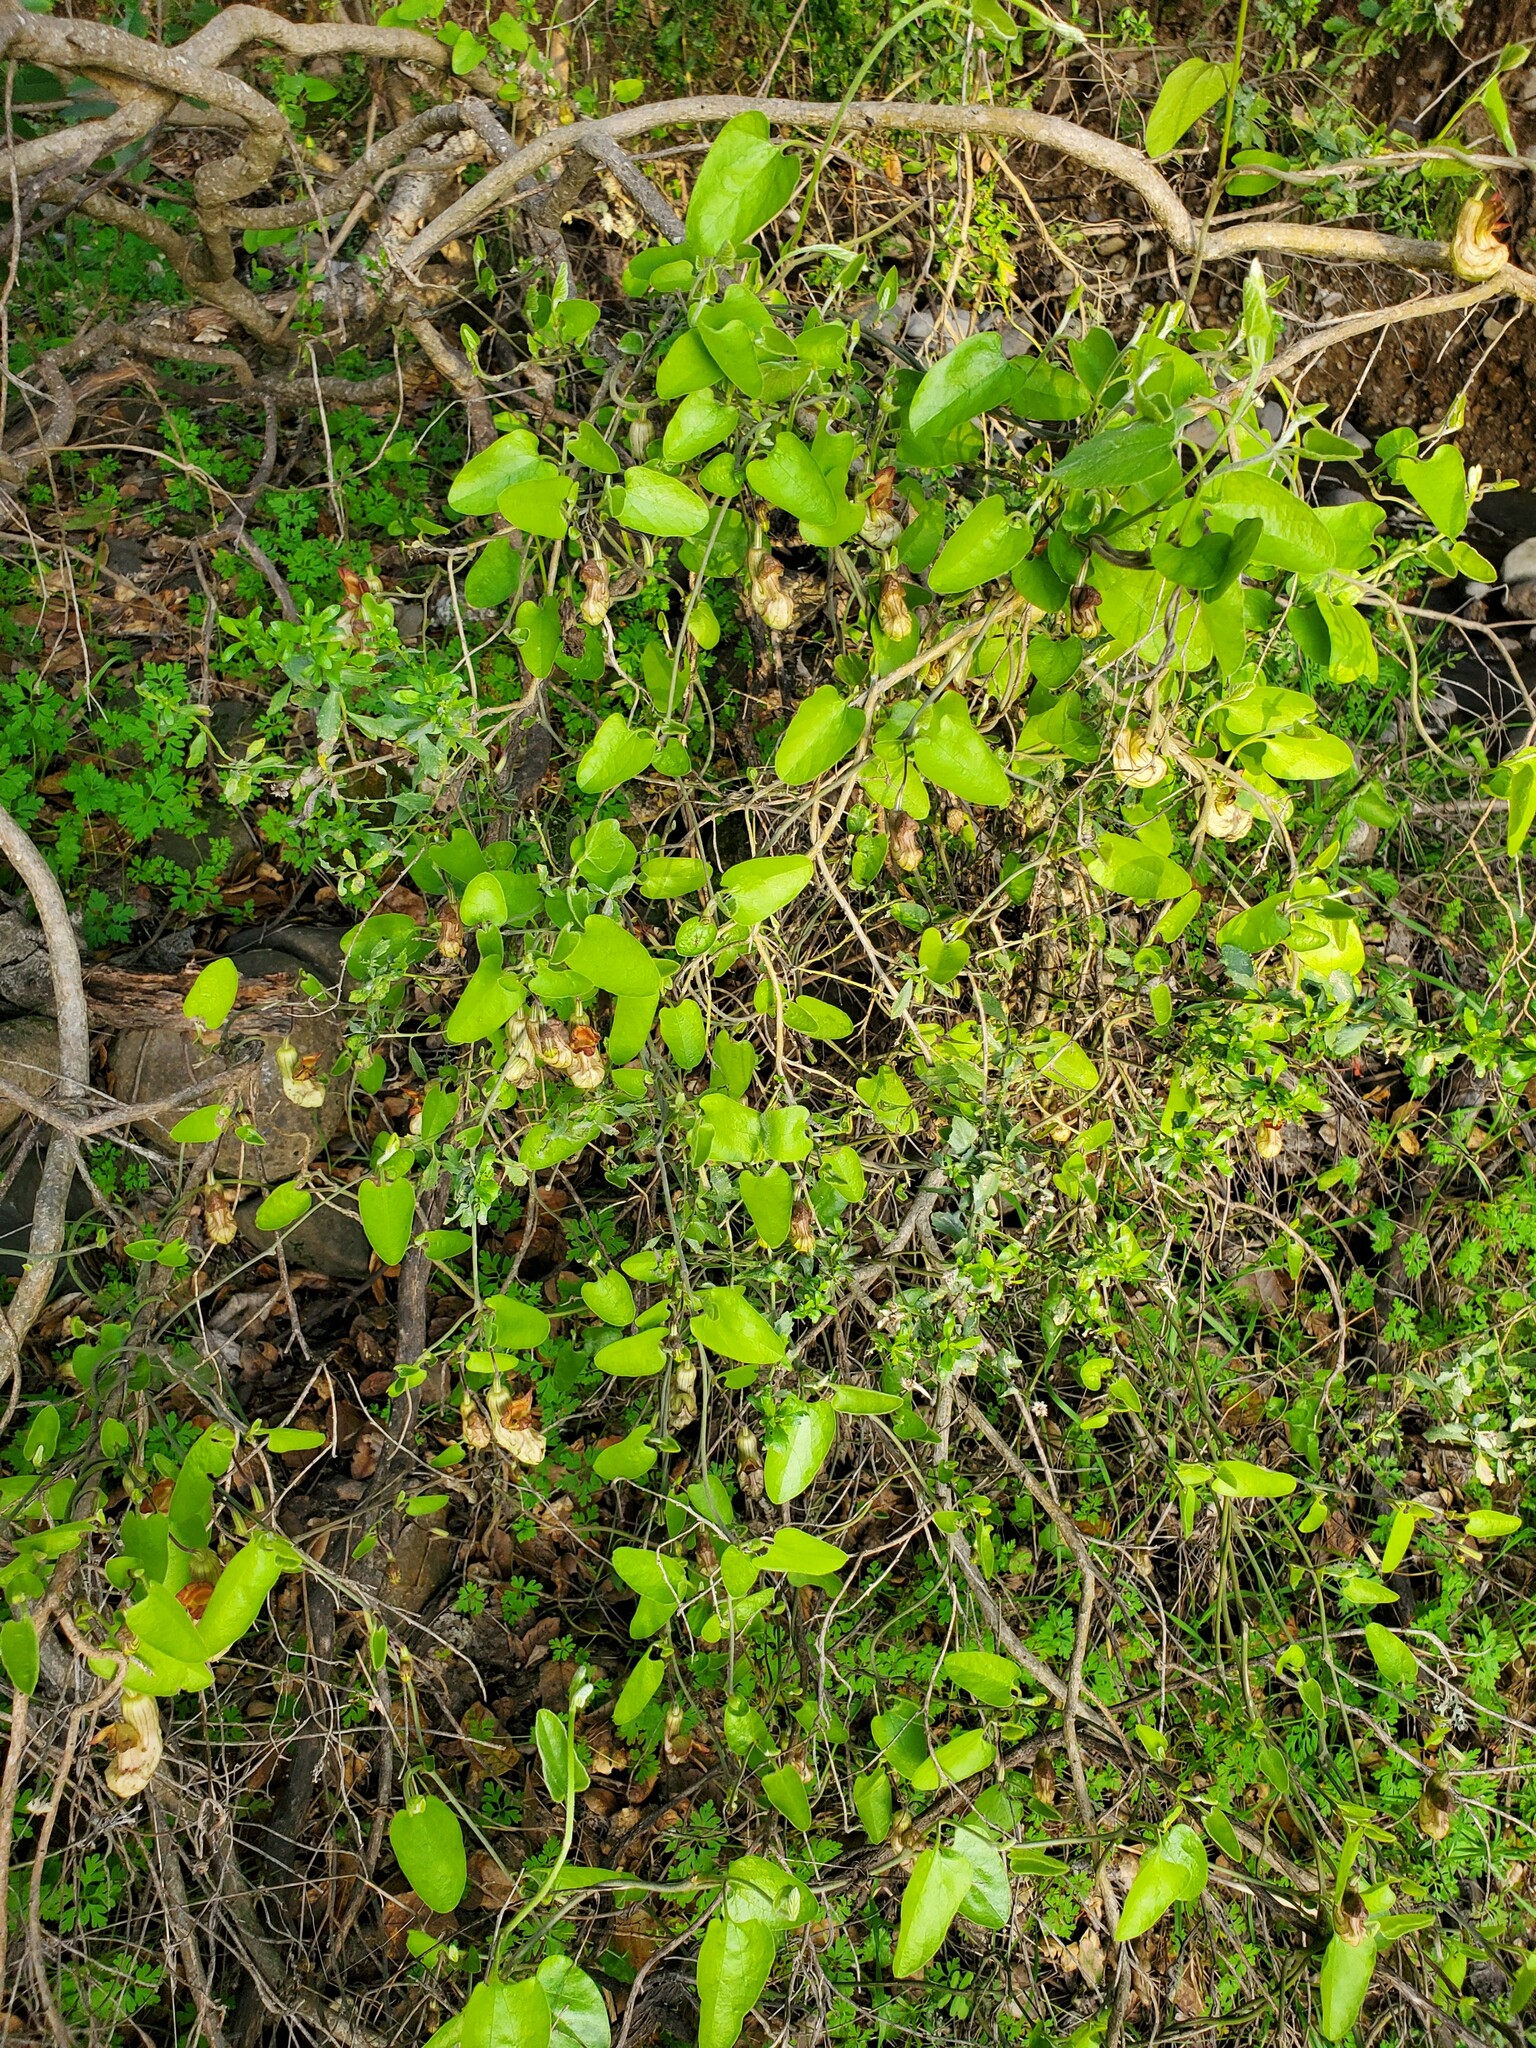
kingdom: Plantae
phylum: Tracheophyta
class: Magnoliopsida
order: Piperales
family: Aristolochiaceae
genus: Isotrema
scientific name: Isotrema californicum
